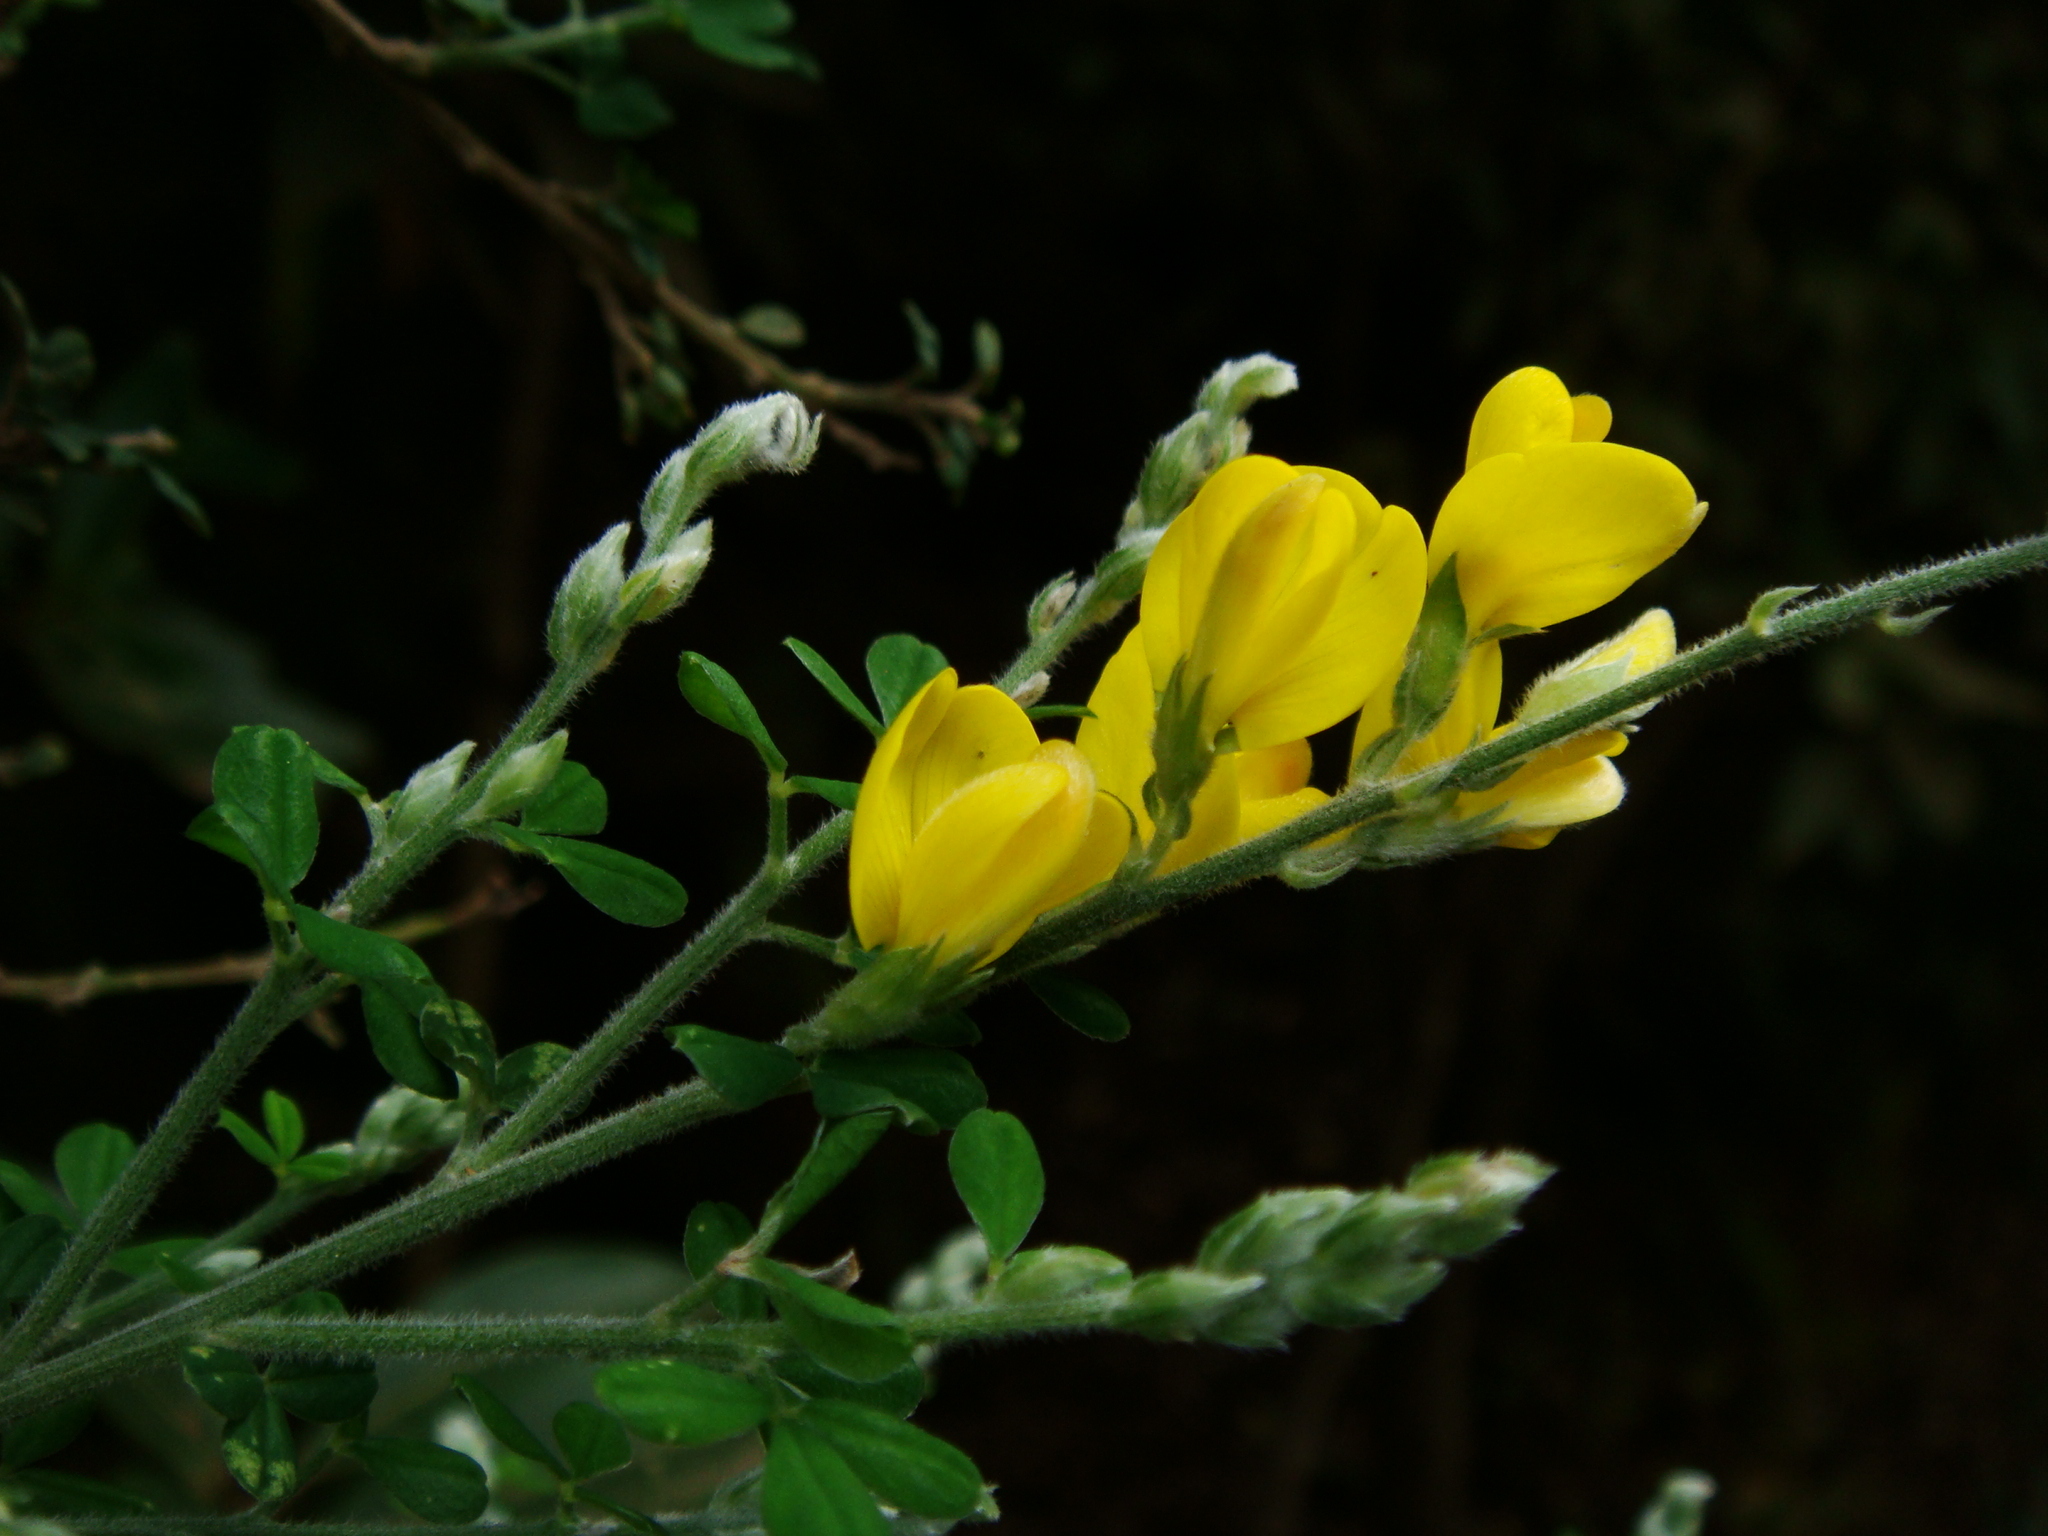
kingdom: Plantae
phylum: Tracheophyta
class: Magnoliopsida
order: Fabales
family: Fabaceae
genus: Genista
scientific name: Genista canariensis
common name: Canary broom
